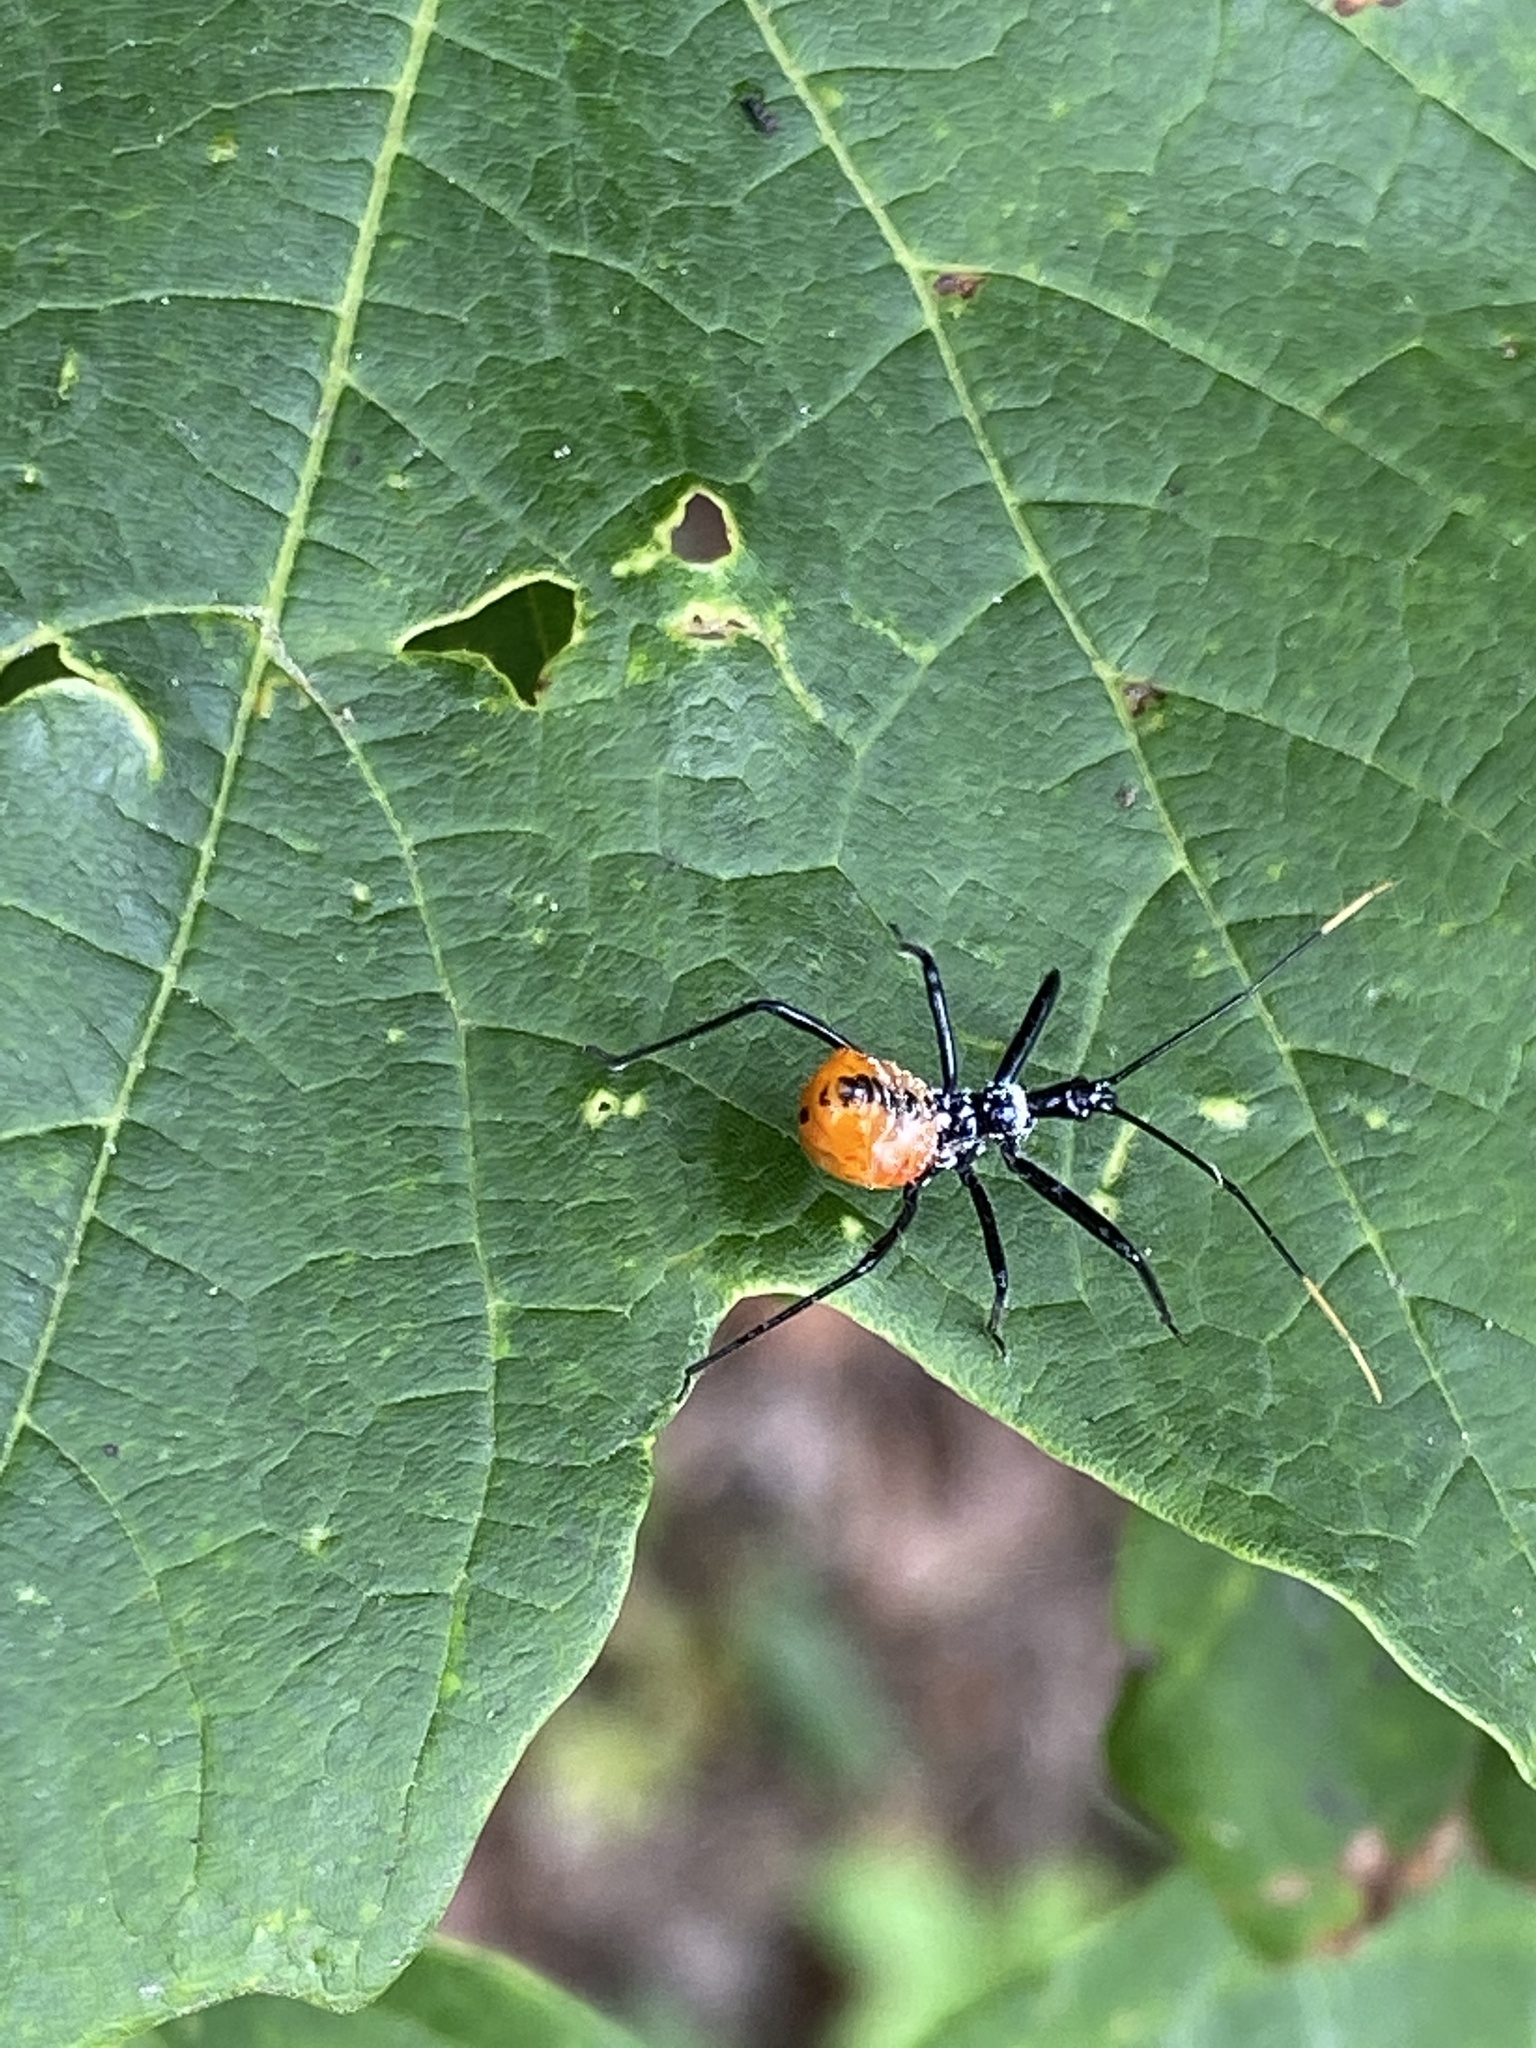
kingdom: Animalia
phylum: Arthropoda
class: Insecta
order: Hemiptera
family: Reduviidae
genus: Arilus
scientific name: Arilus cristatus
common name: North american wheel bug
